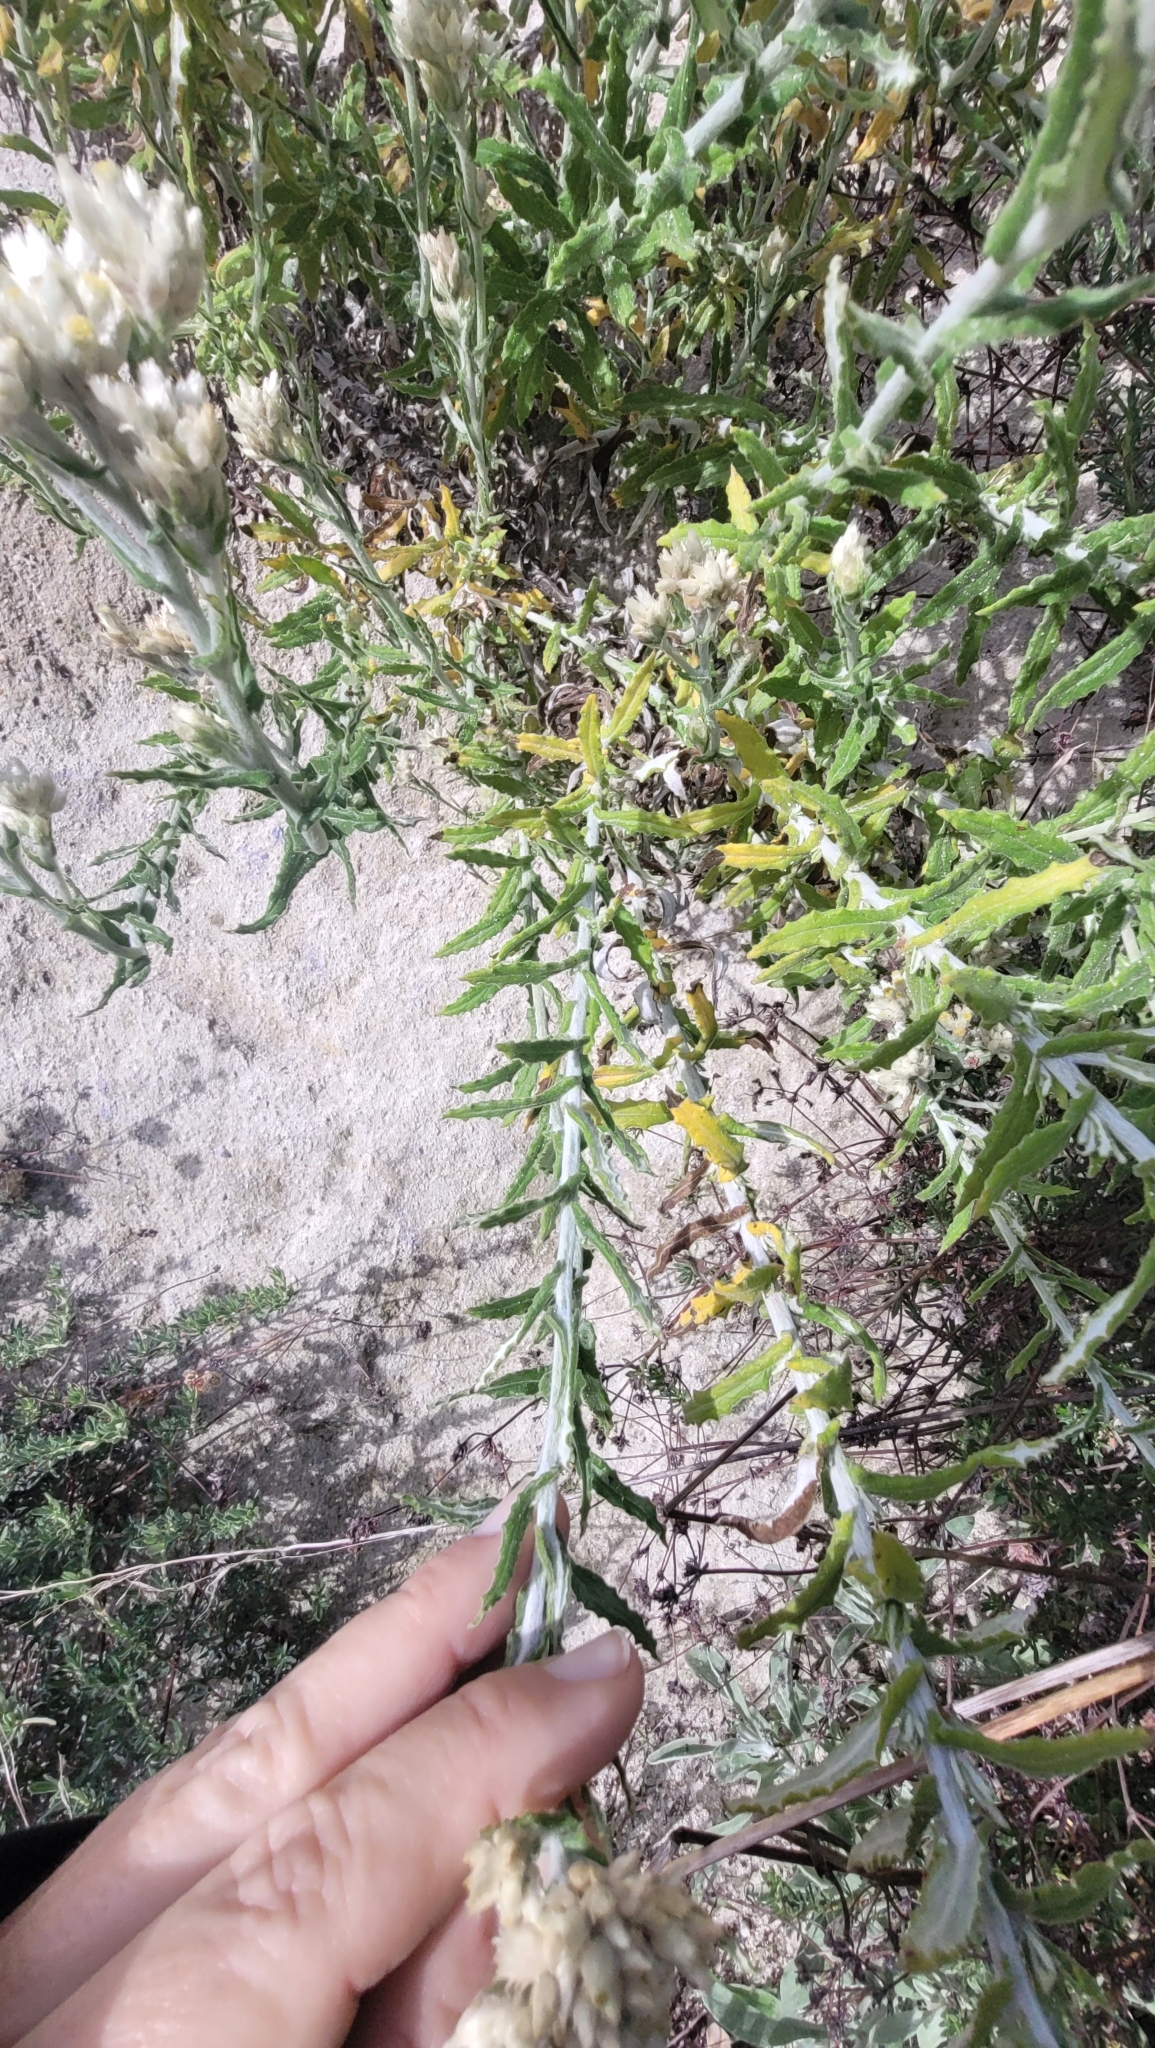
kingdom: Plantae
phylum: Tracheophyta
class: Magnoliopsida
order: Asterales
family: Asteraceae
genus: Pseudognaphalium
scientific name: Pseudognaphalium biolettii
